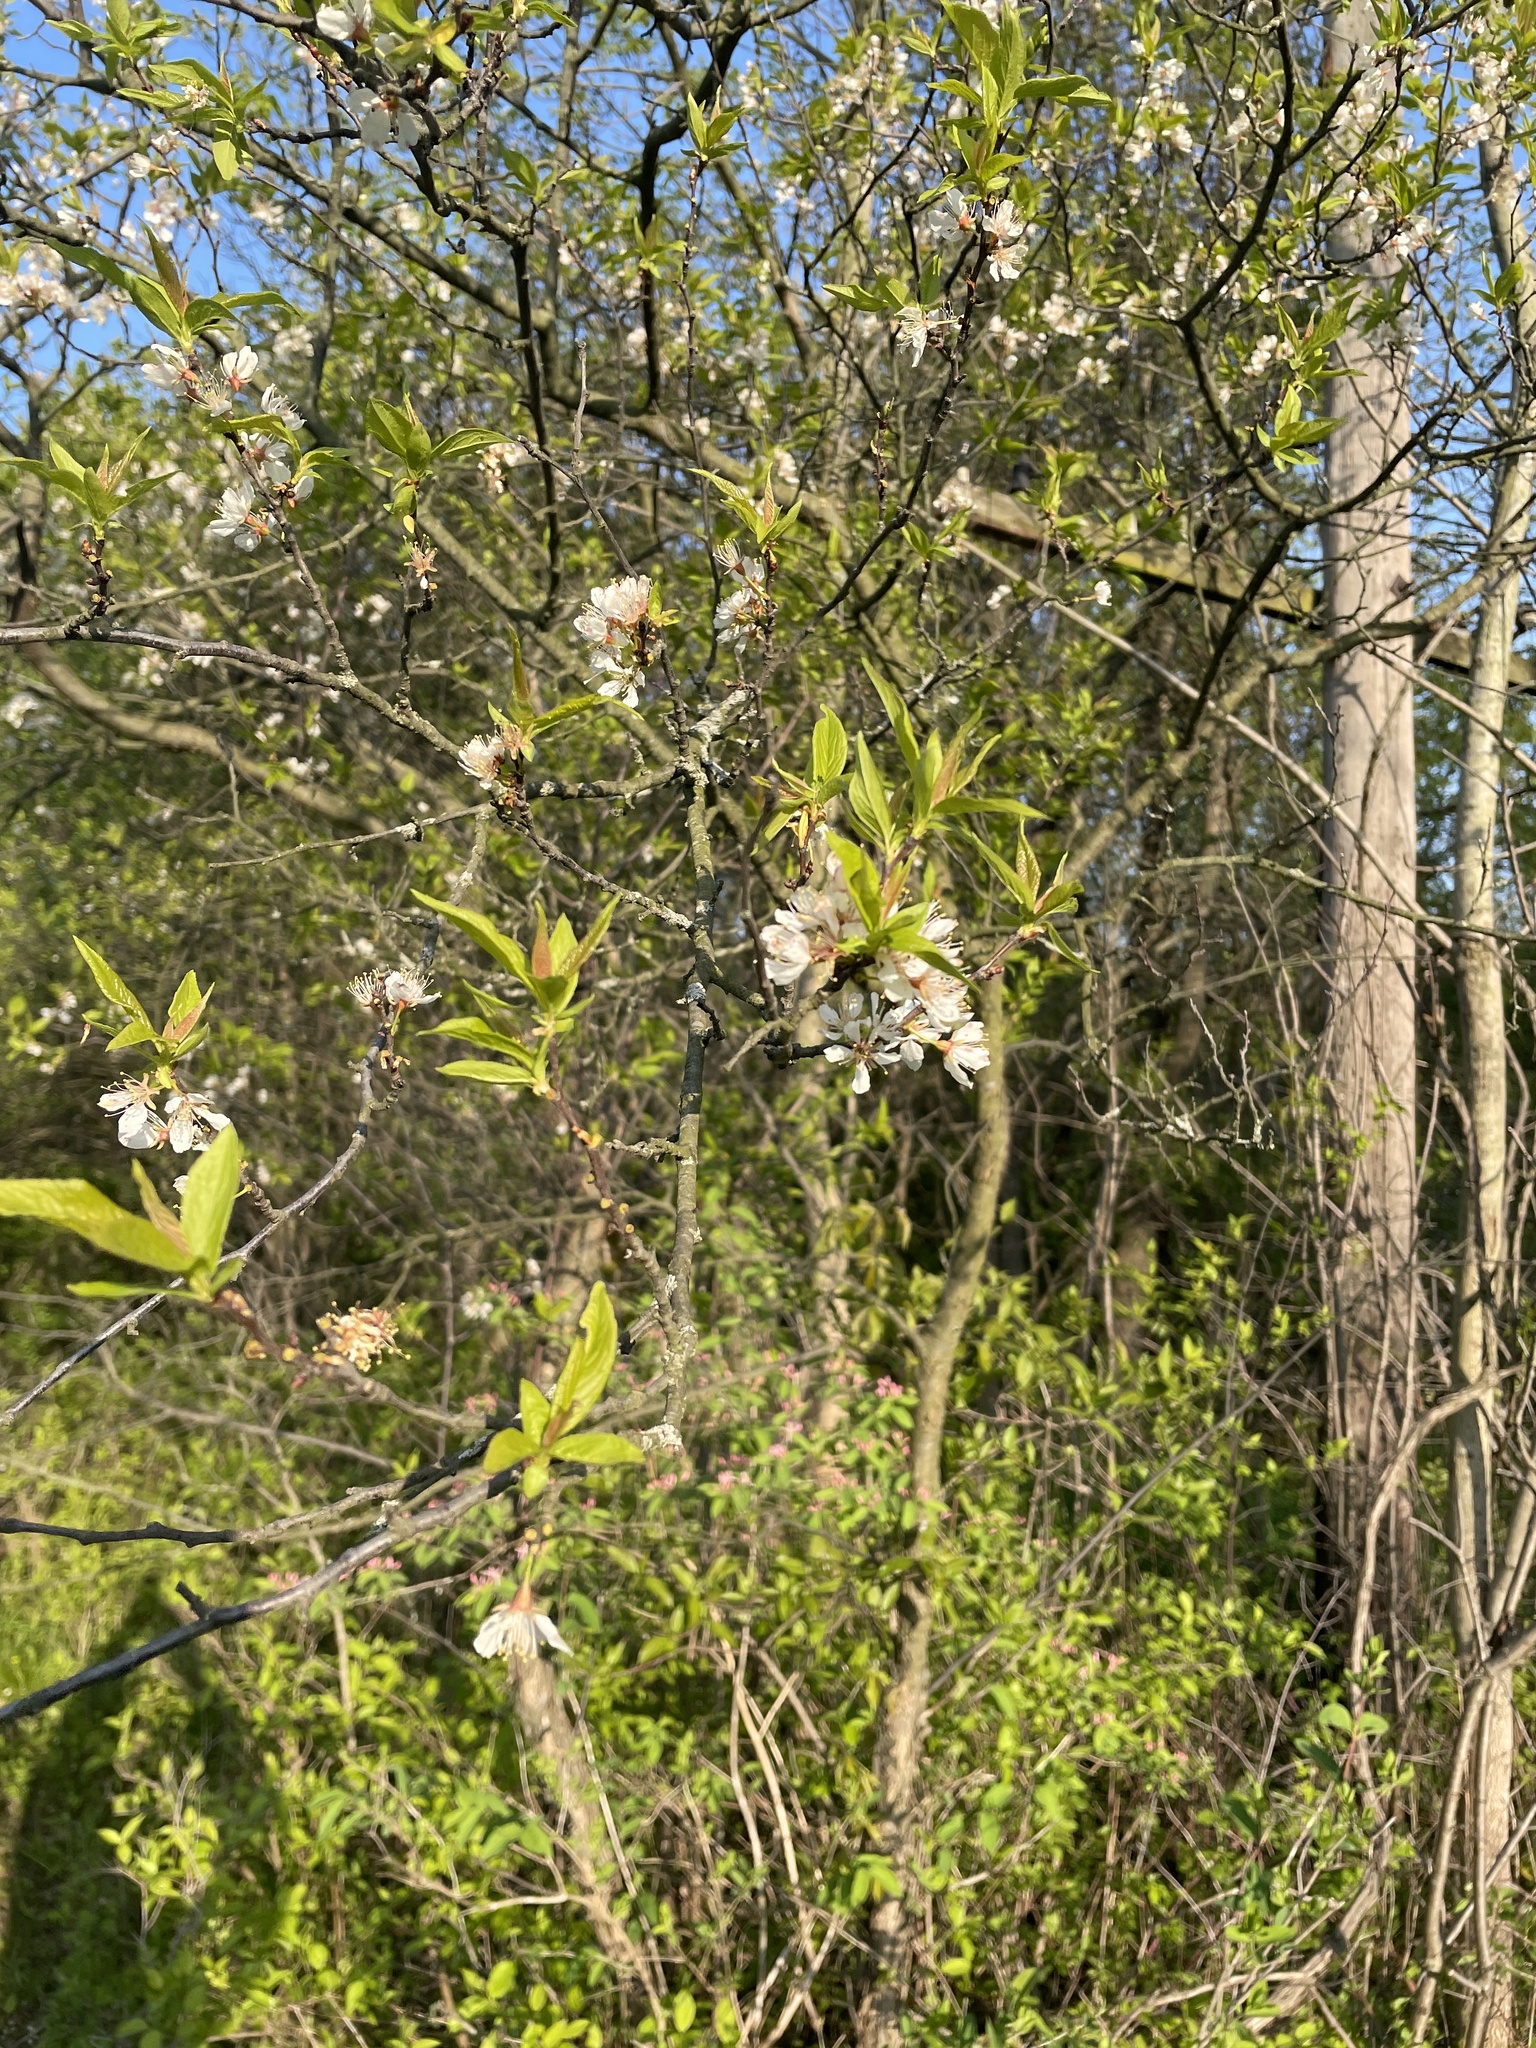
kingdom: Plantae
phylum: Tracheophyta
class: Magnoliopsida
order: Rosales
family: Rosaceae
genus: Prunus
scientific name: Prunus americana
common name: American plum
